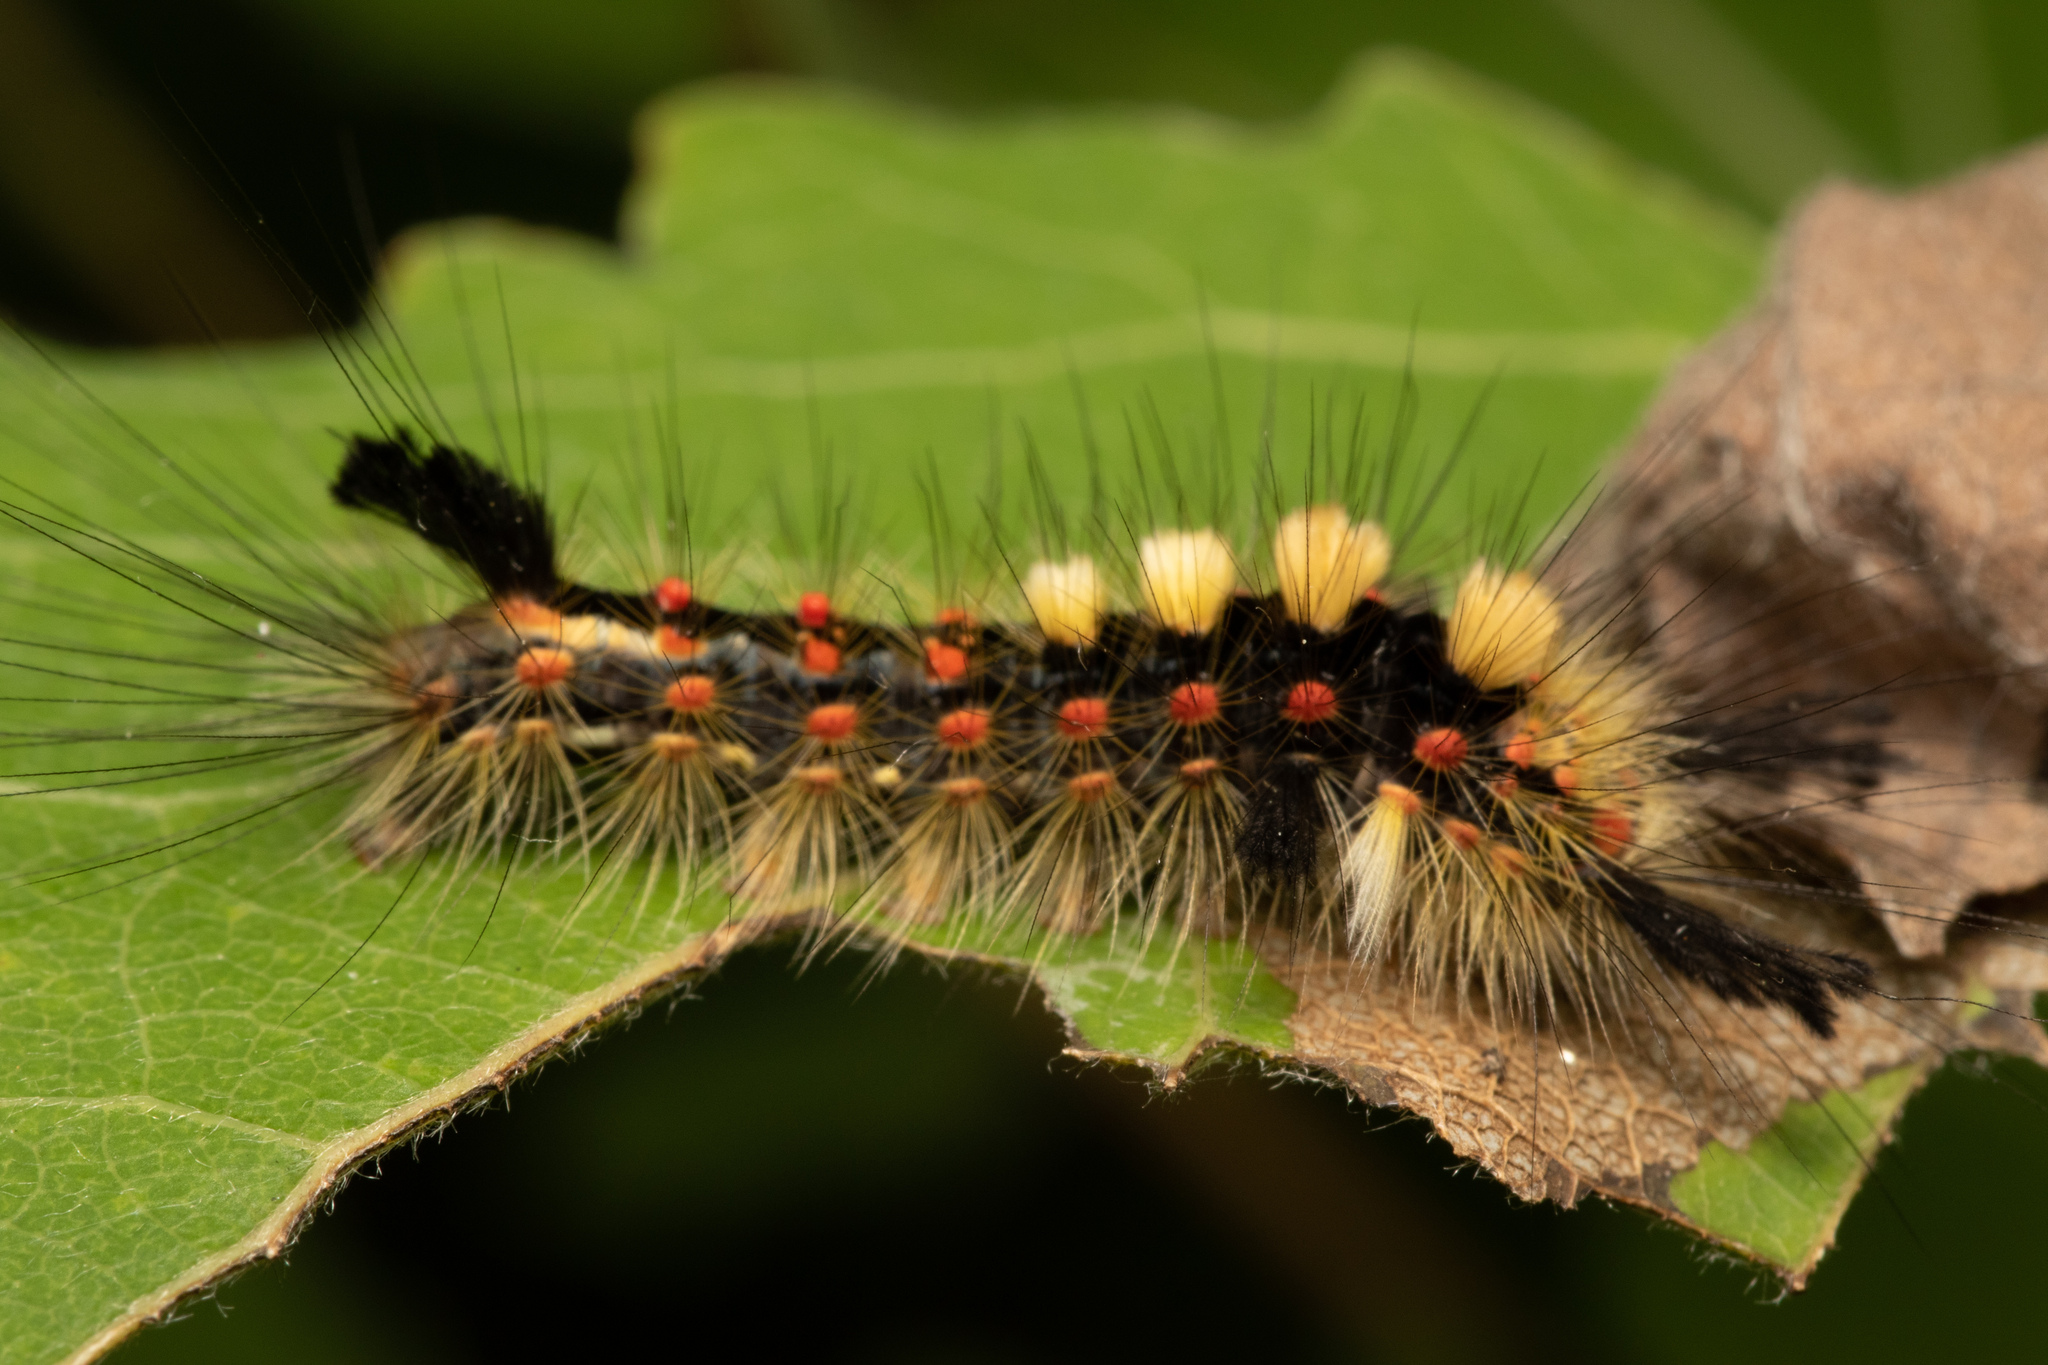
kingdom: Animalia
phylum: Arthropoda
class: Insecta
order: Lepidoptera
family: Erebidae
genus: Orgyia
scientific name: Orgyia antiqua
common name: Vapourer
